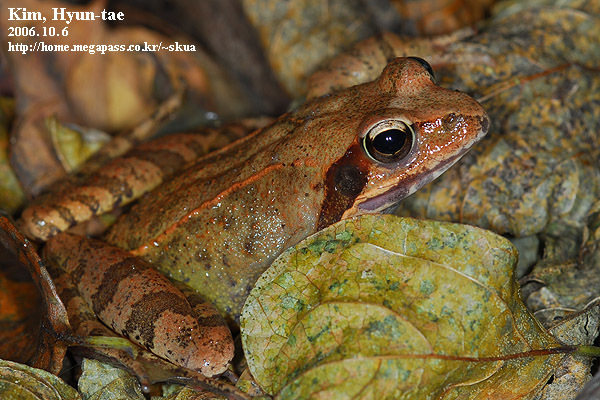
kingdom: Animalia
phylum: Chordata
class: Amphibia
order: Anura
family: Ranidae
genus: Rana
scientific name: Rana uenoi
